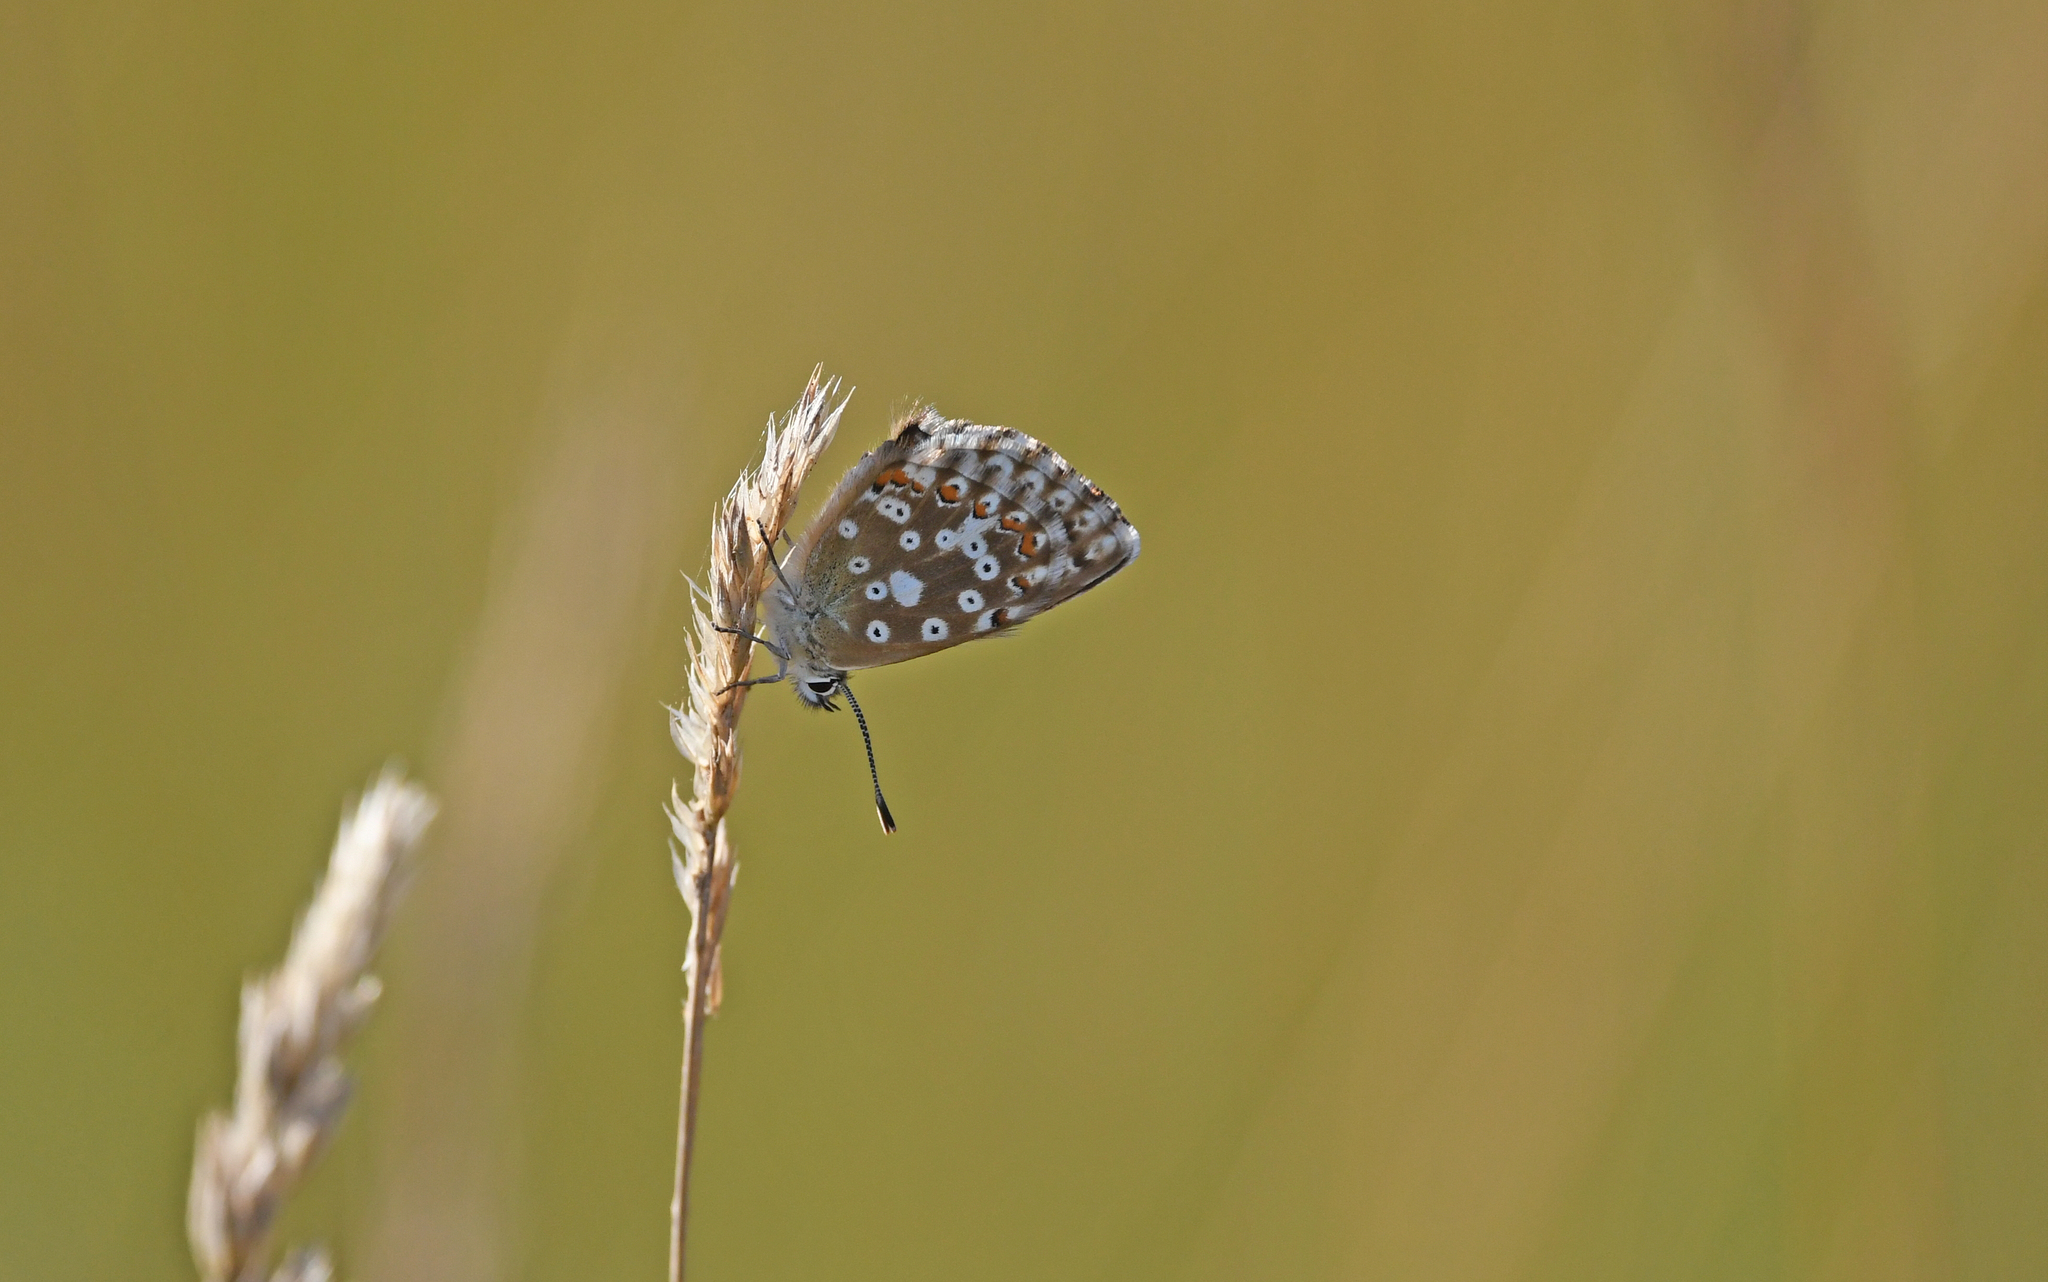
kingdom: Animalia
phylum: Arthropoda
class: Insecta
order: Lepidoptera
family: Lycaenidae
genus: Lysandra
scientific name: Lysandra coridon
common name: Chalkhill blue
